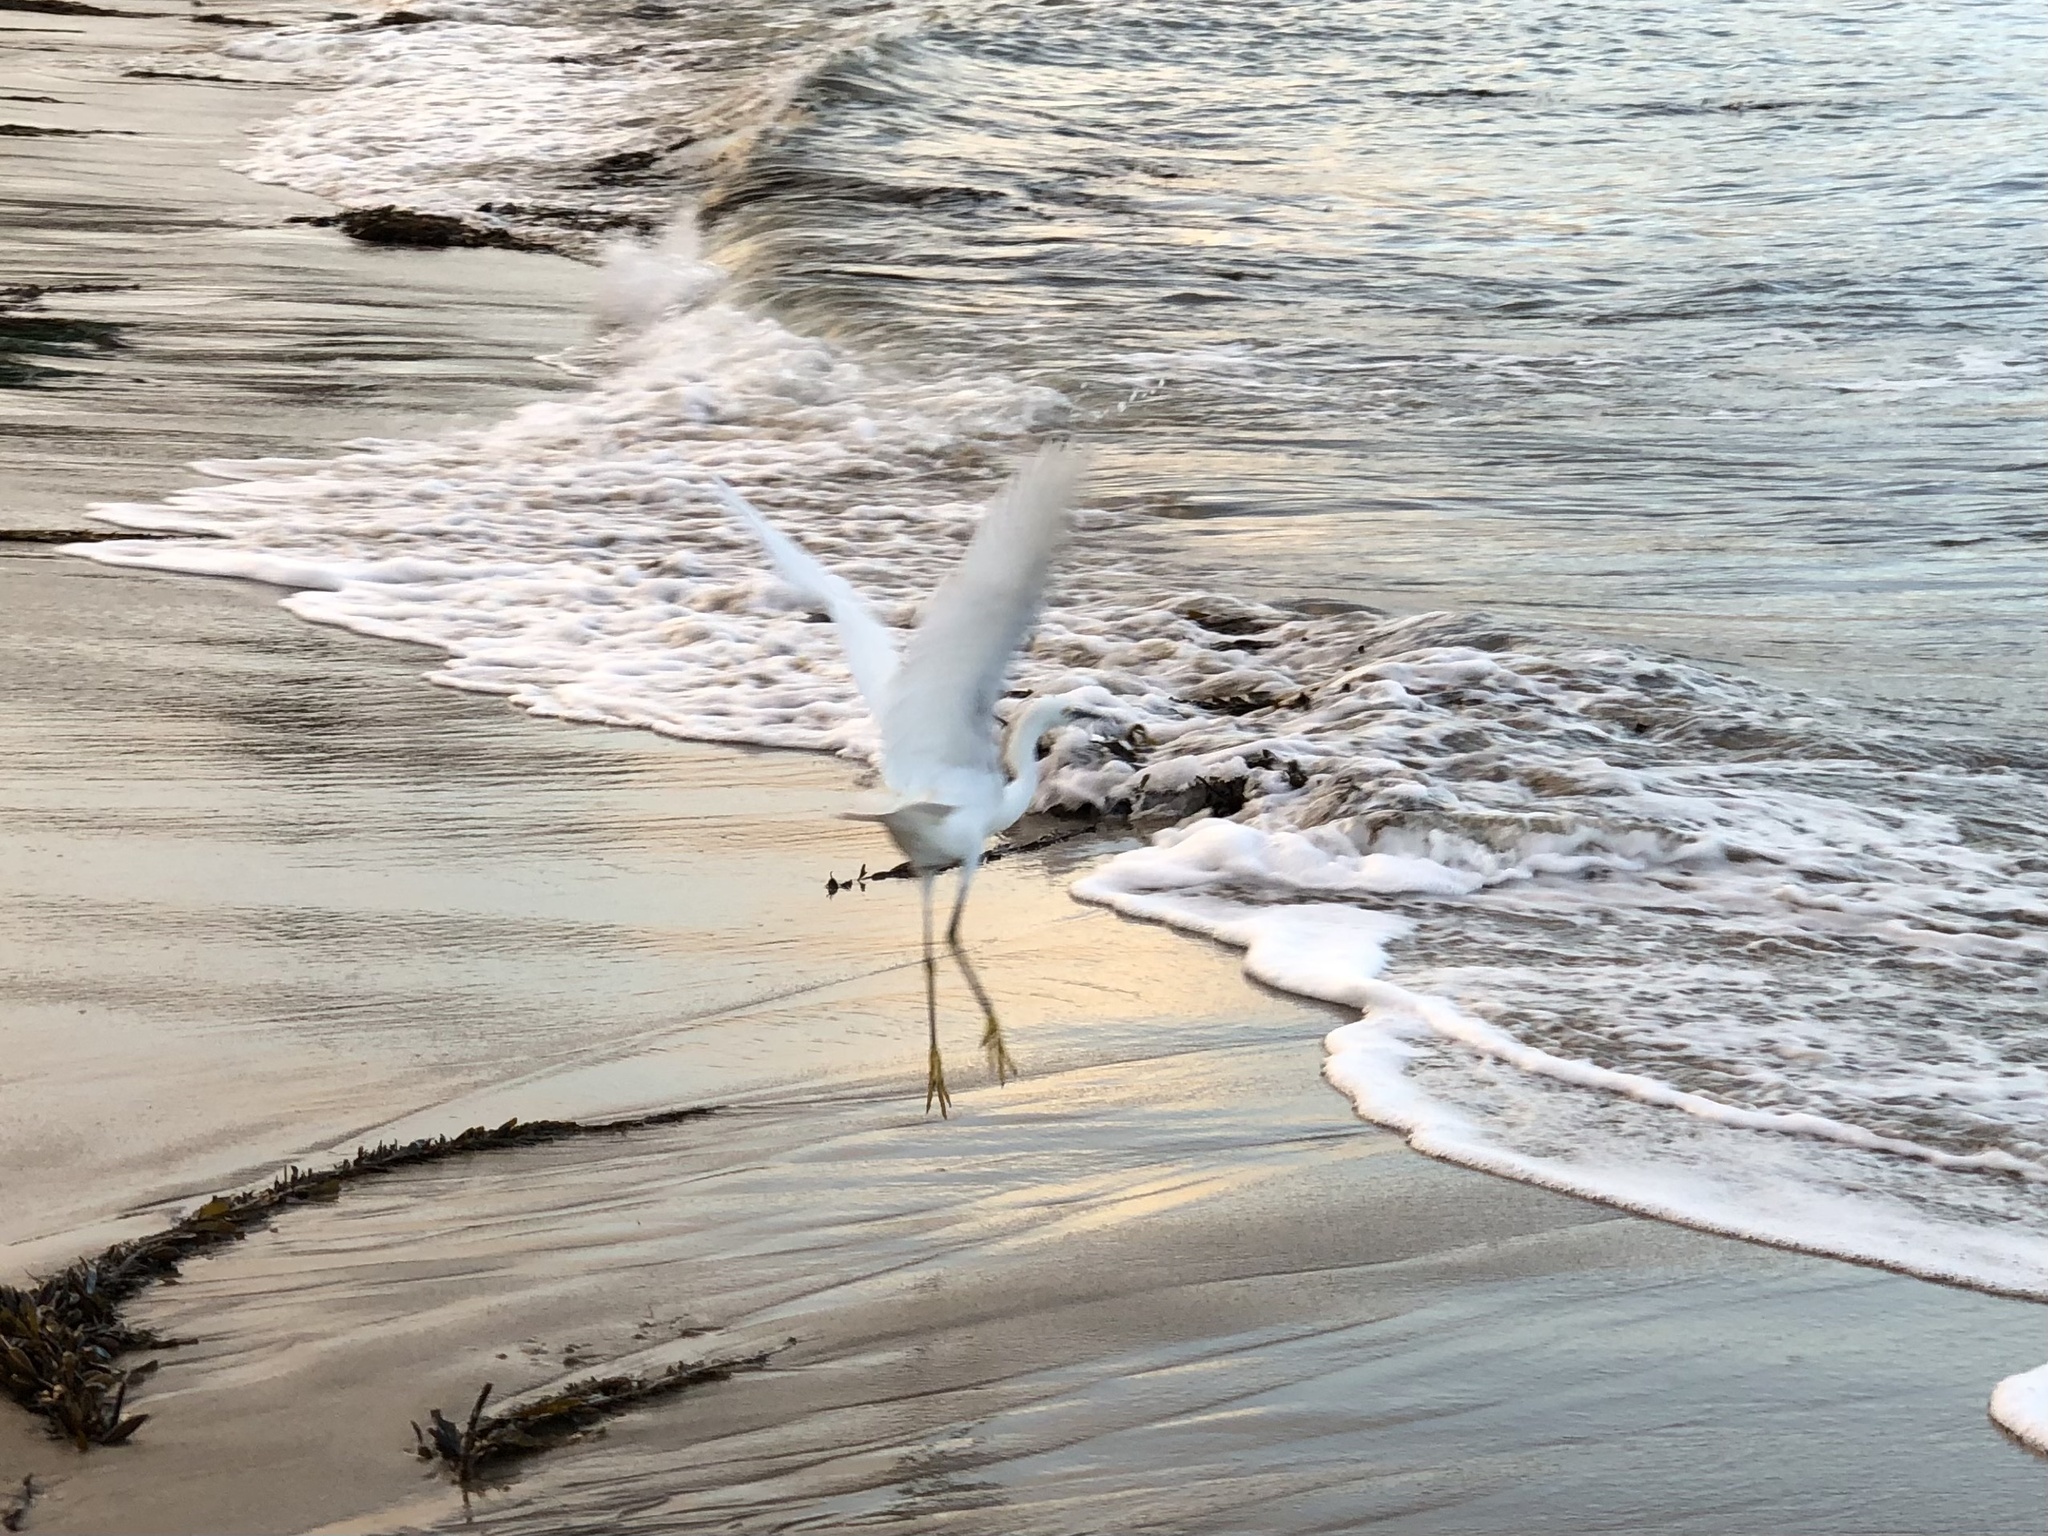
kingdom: Animalia
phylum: Chordata
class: Aves
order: Pelecaniformes
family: Ardeidae
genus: Egretta
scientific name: Egretta thula
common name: Snowy egret
